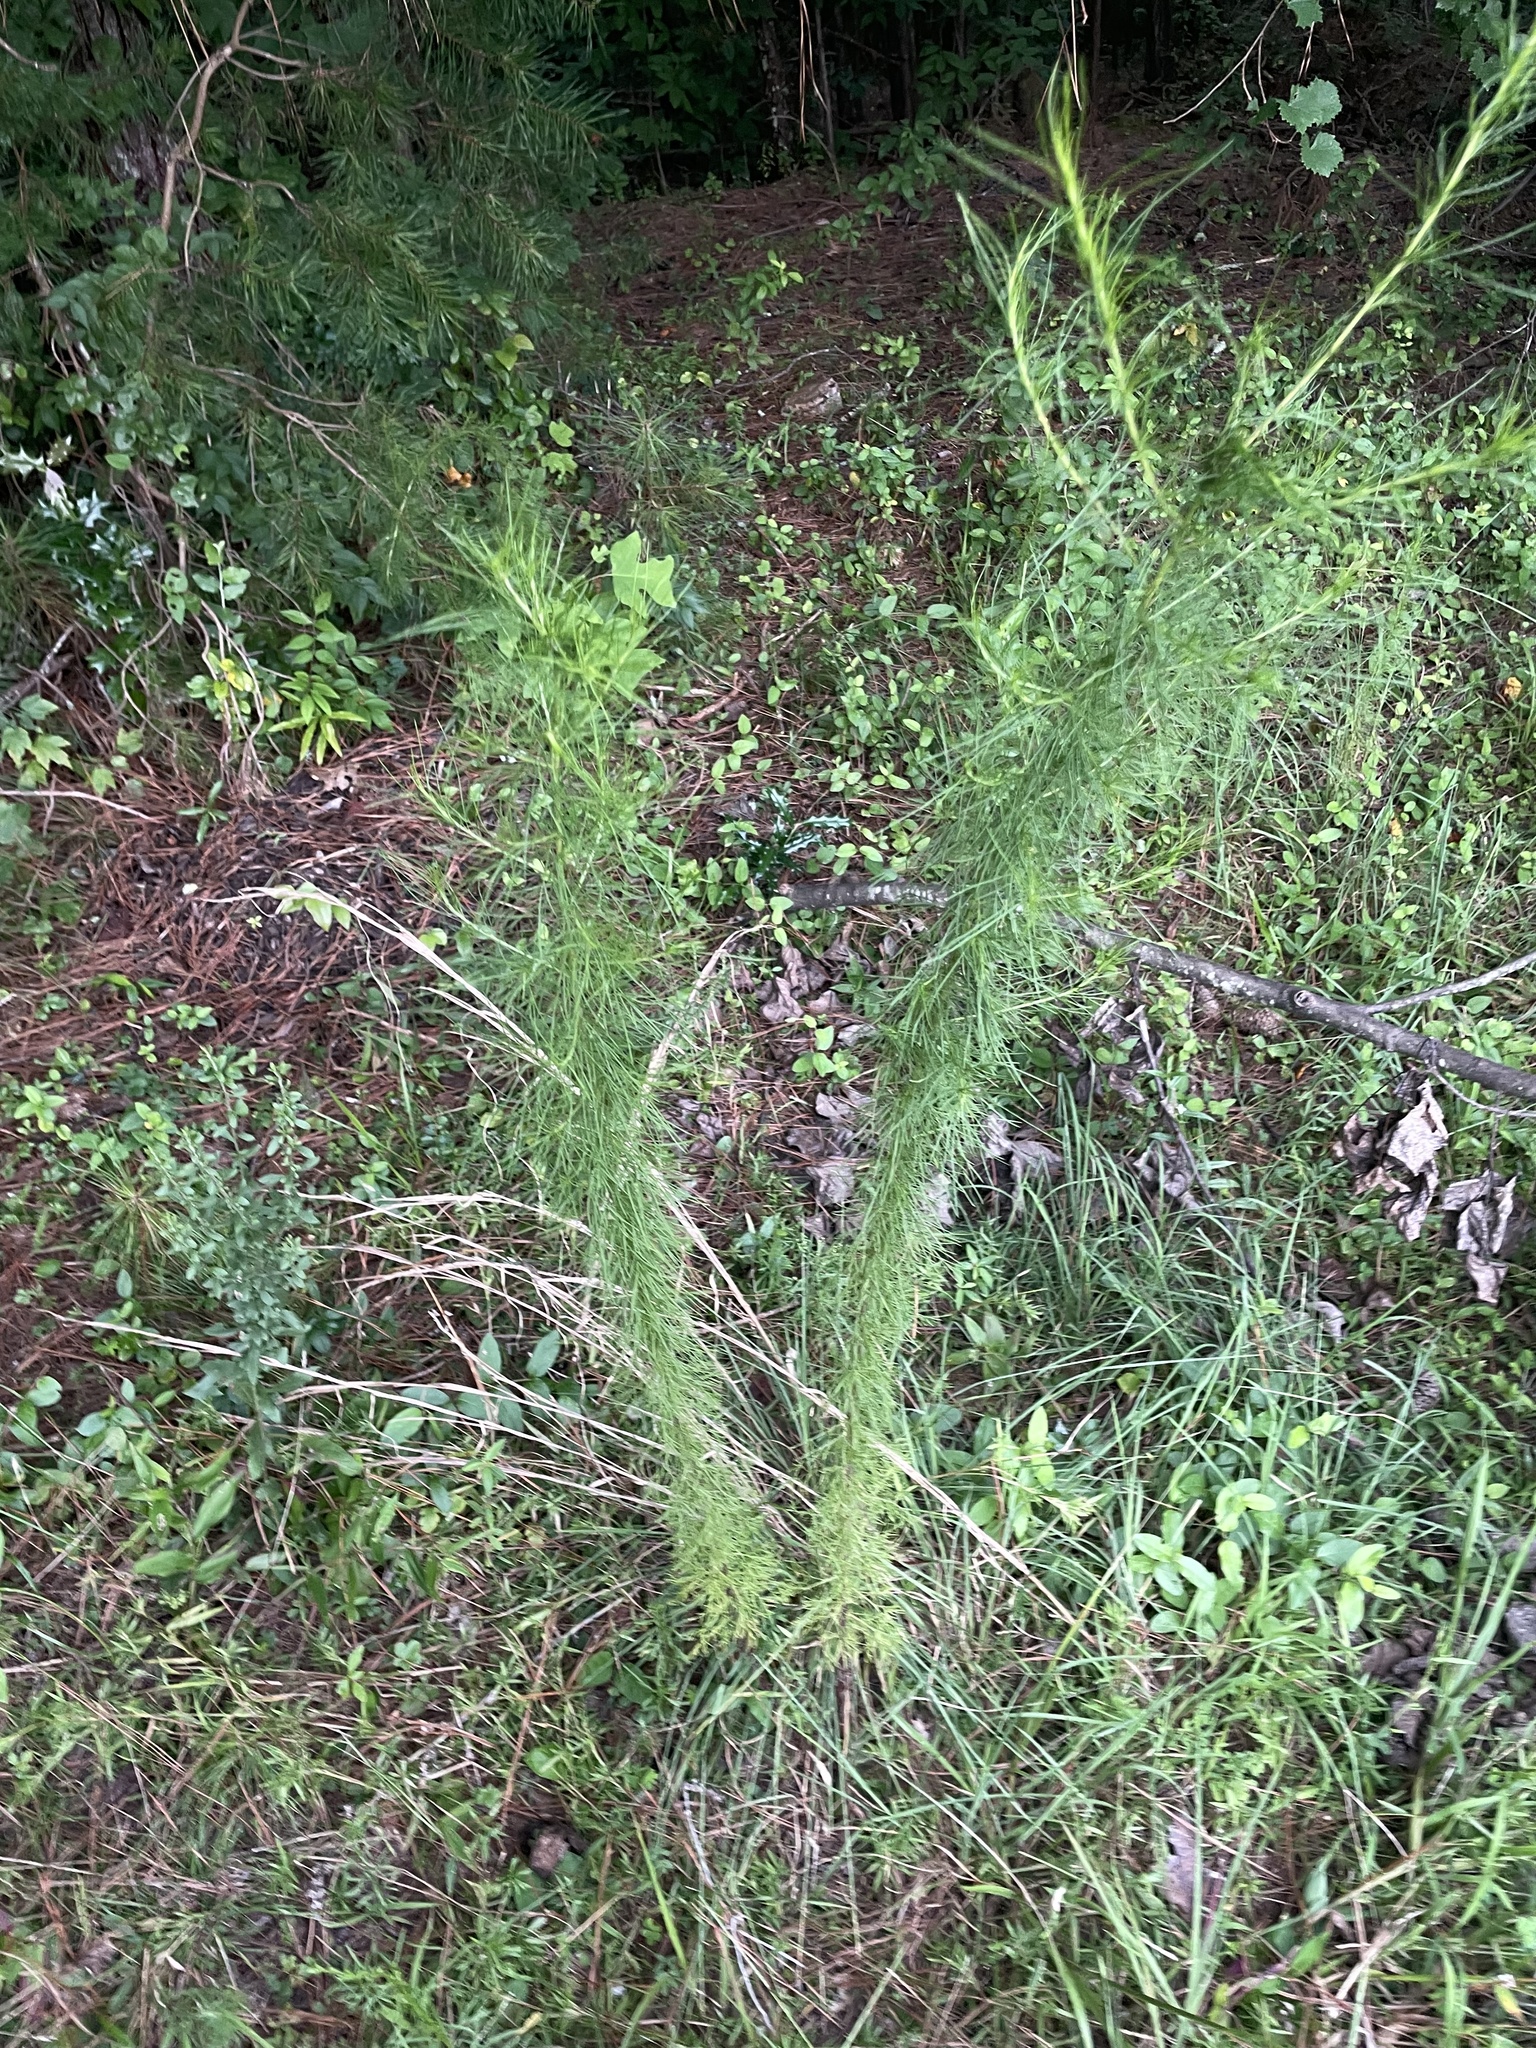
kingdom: Plantae
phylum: Tracheophyta
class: Magnoliopsida
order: Asterales
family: Asteraceae
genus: Eupatorium
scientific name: Eupatorium capillifolium
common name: Dog-fennel
